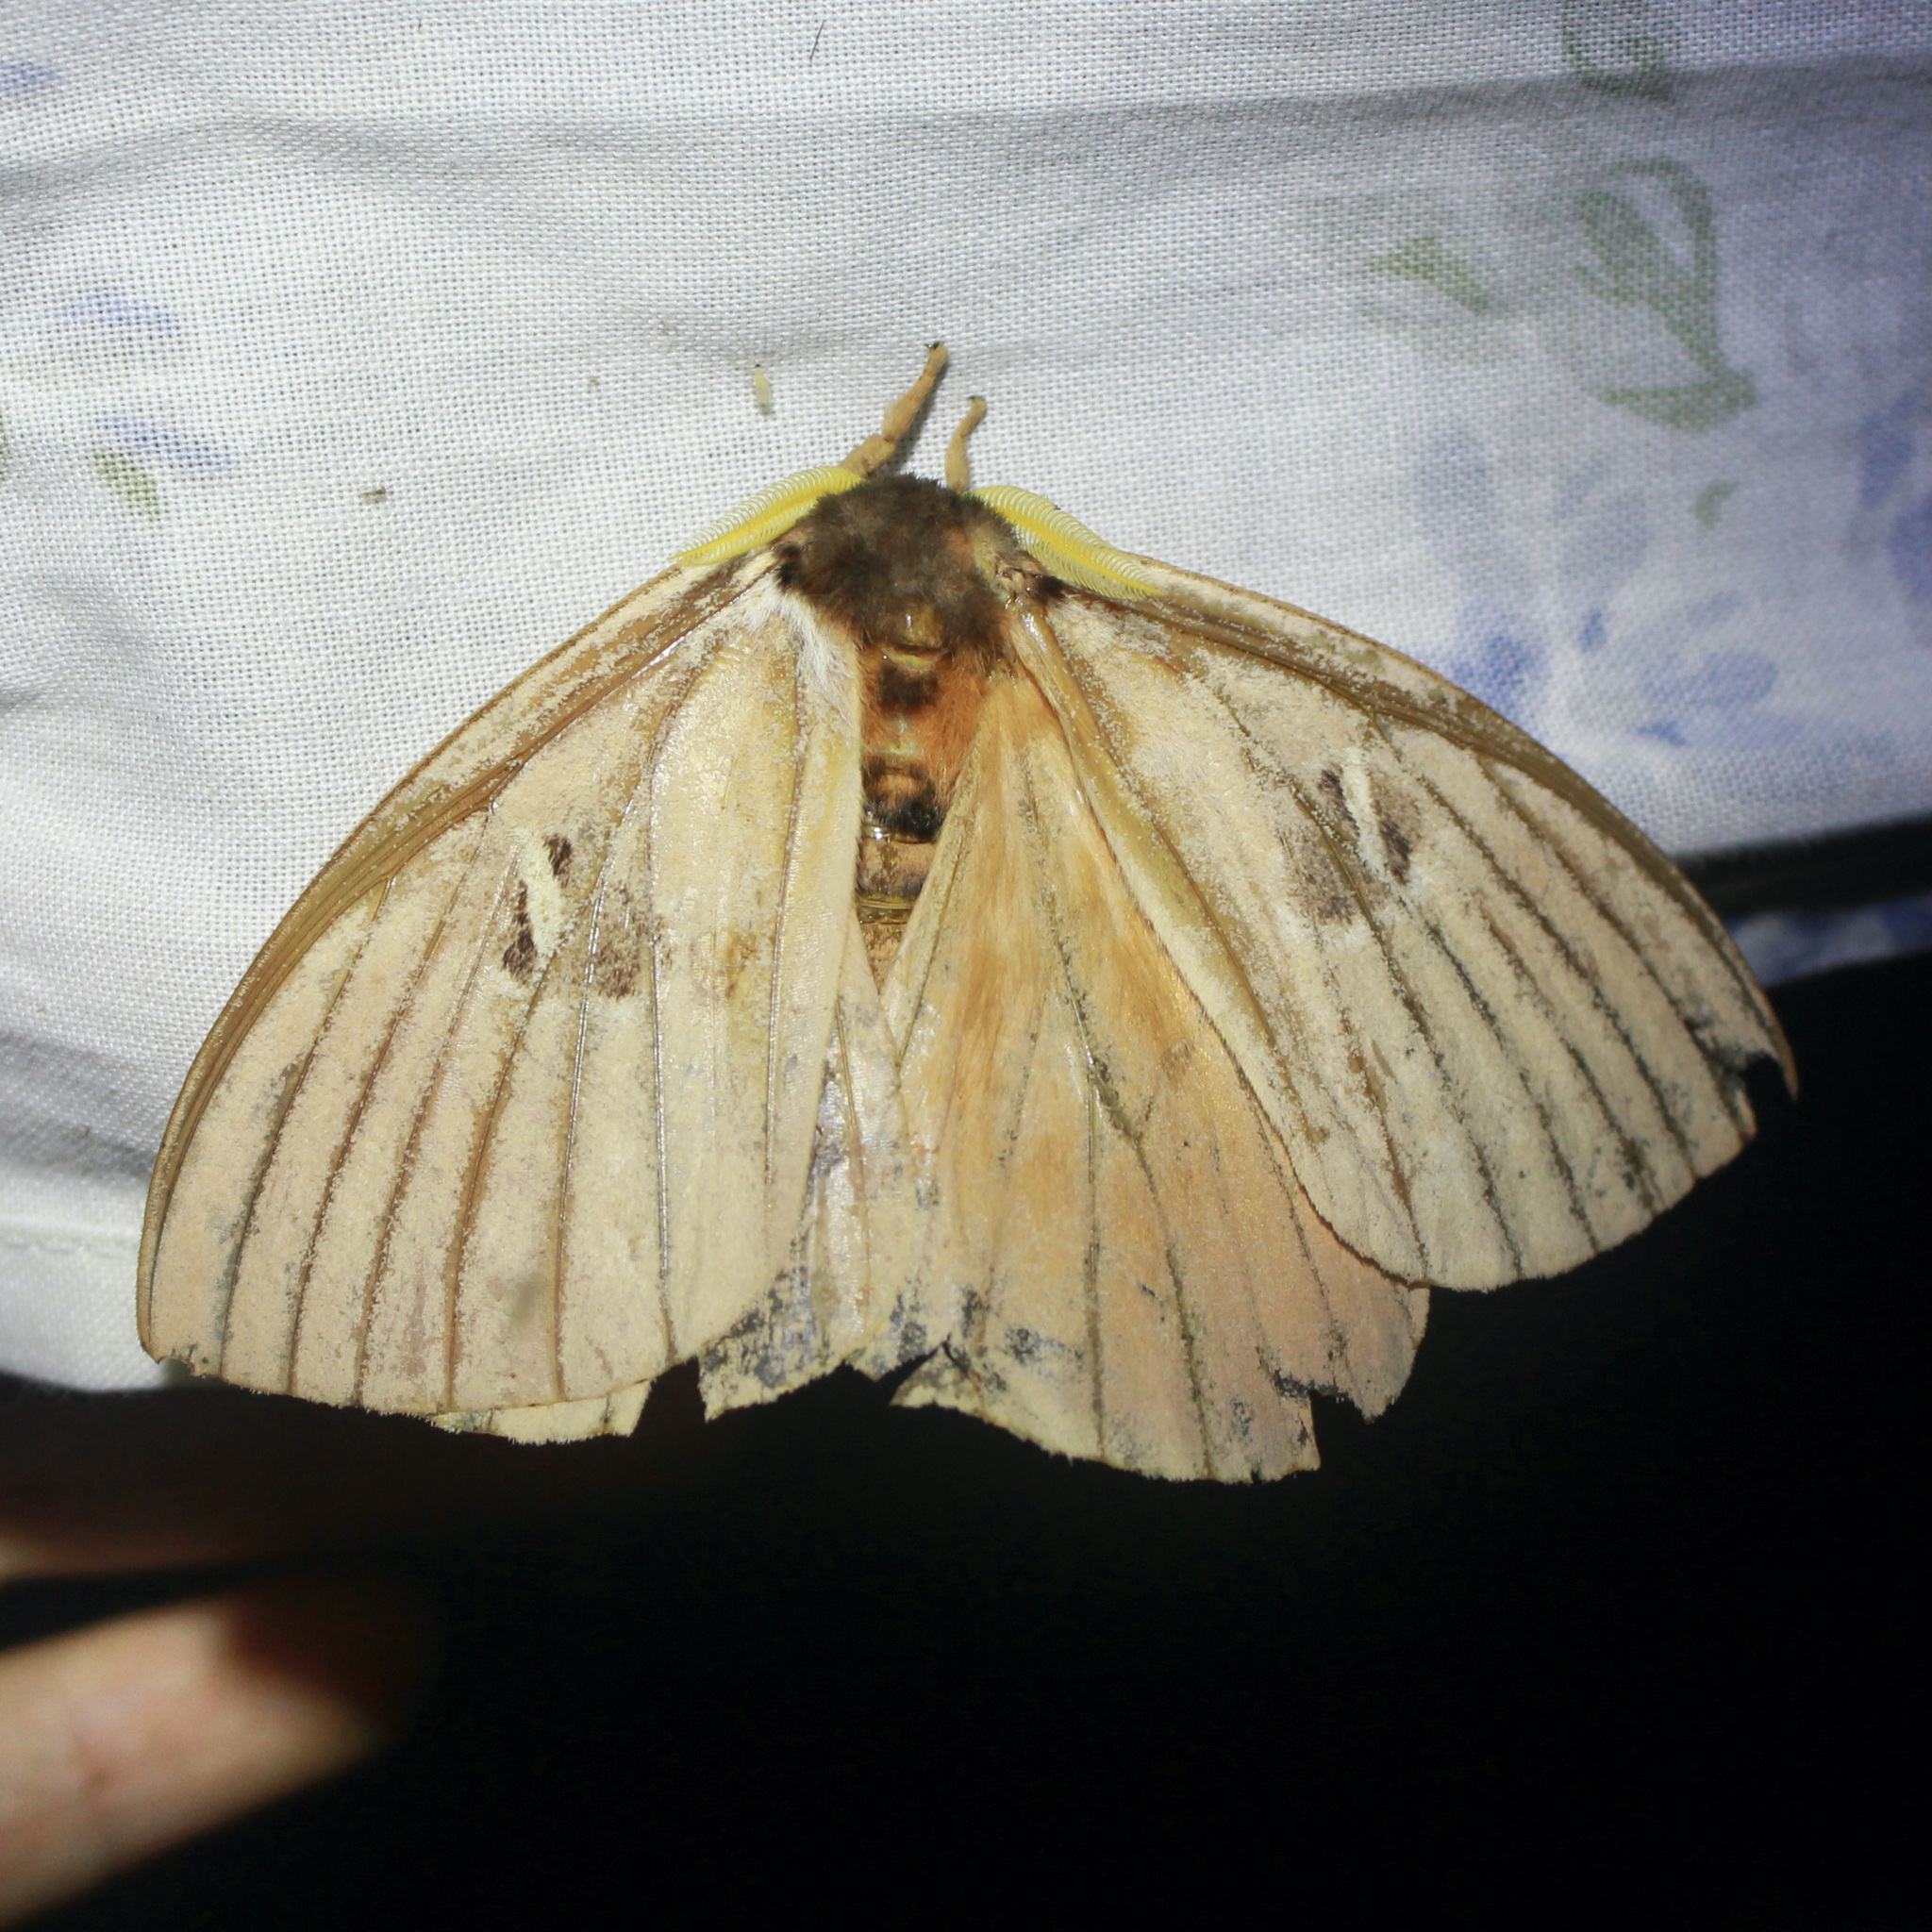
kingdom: Animalia
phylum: Arthropoda
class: Insecta
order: Lepidoptera
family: Saturniidae
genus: Dirphia
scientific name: Dirphia tarquinia
